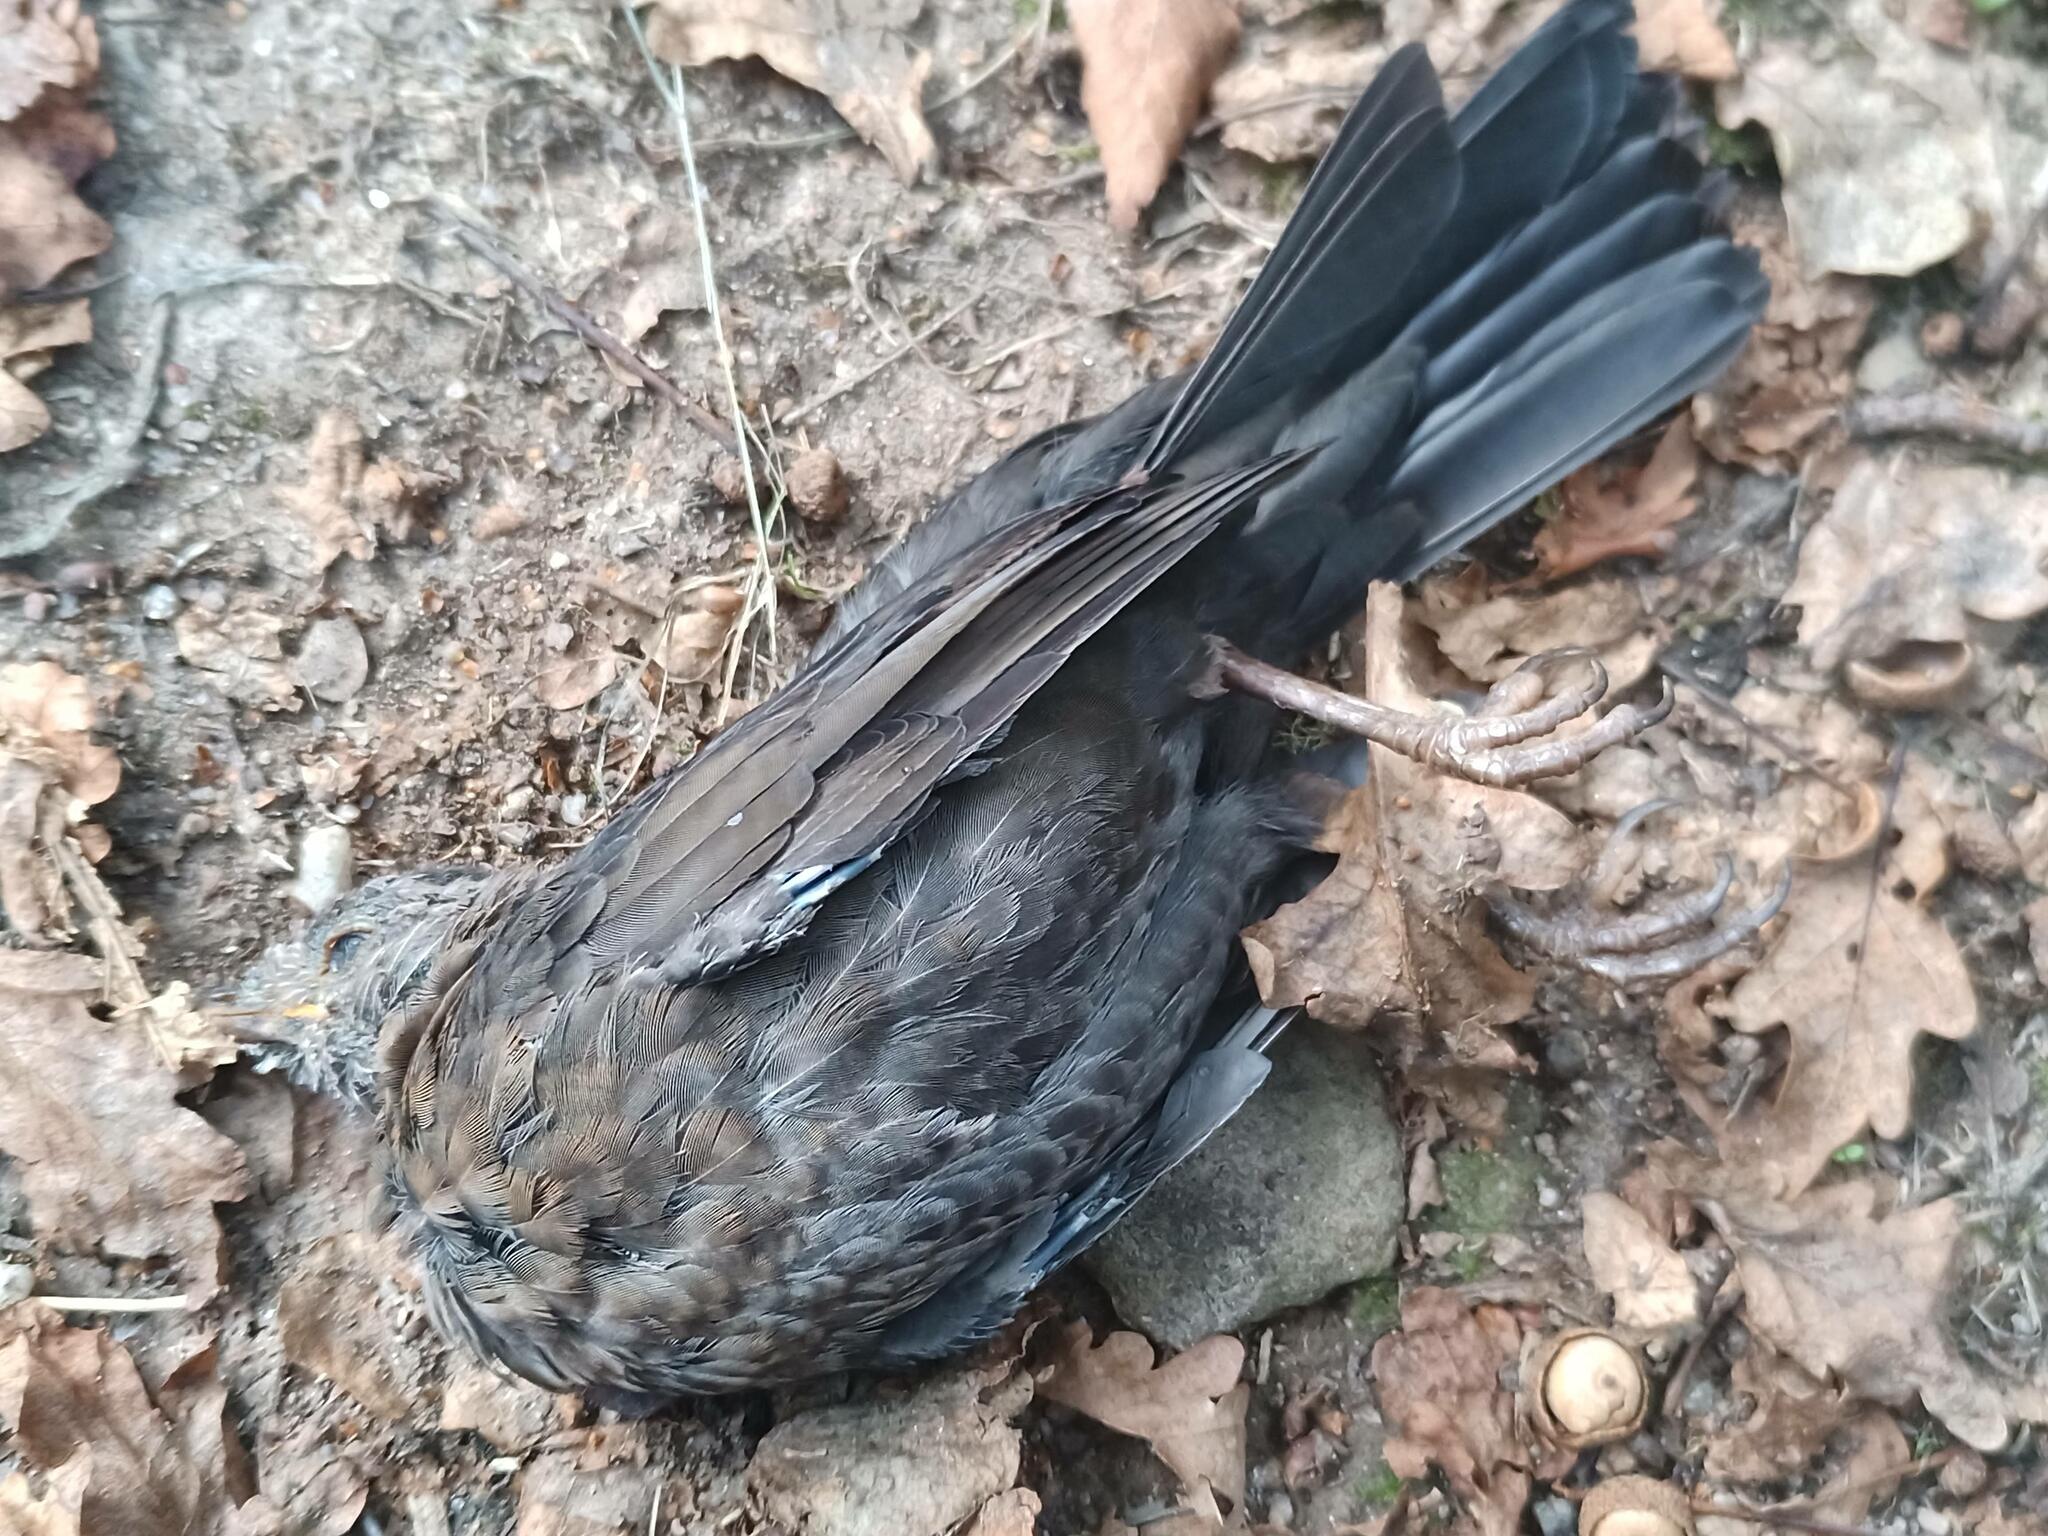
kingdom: Animalia
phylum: Chordata
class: Aves
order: Passeriformes
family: Turdidae
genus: Turdus
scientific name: Turdus merula
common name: Common blackbird
